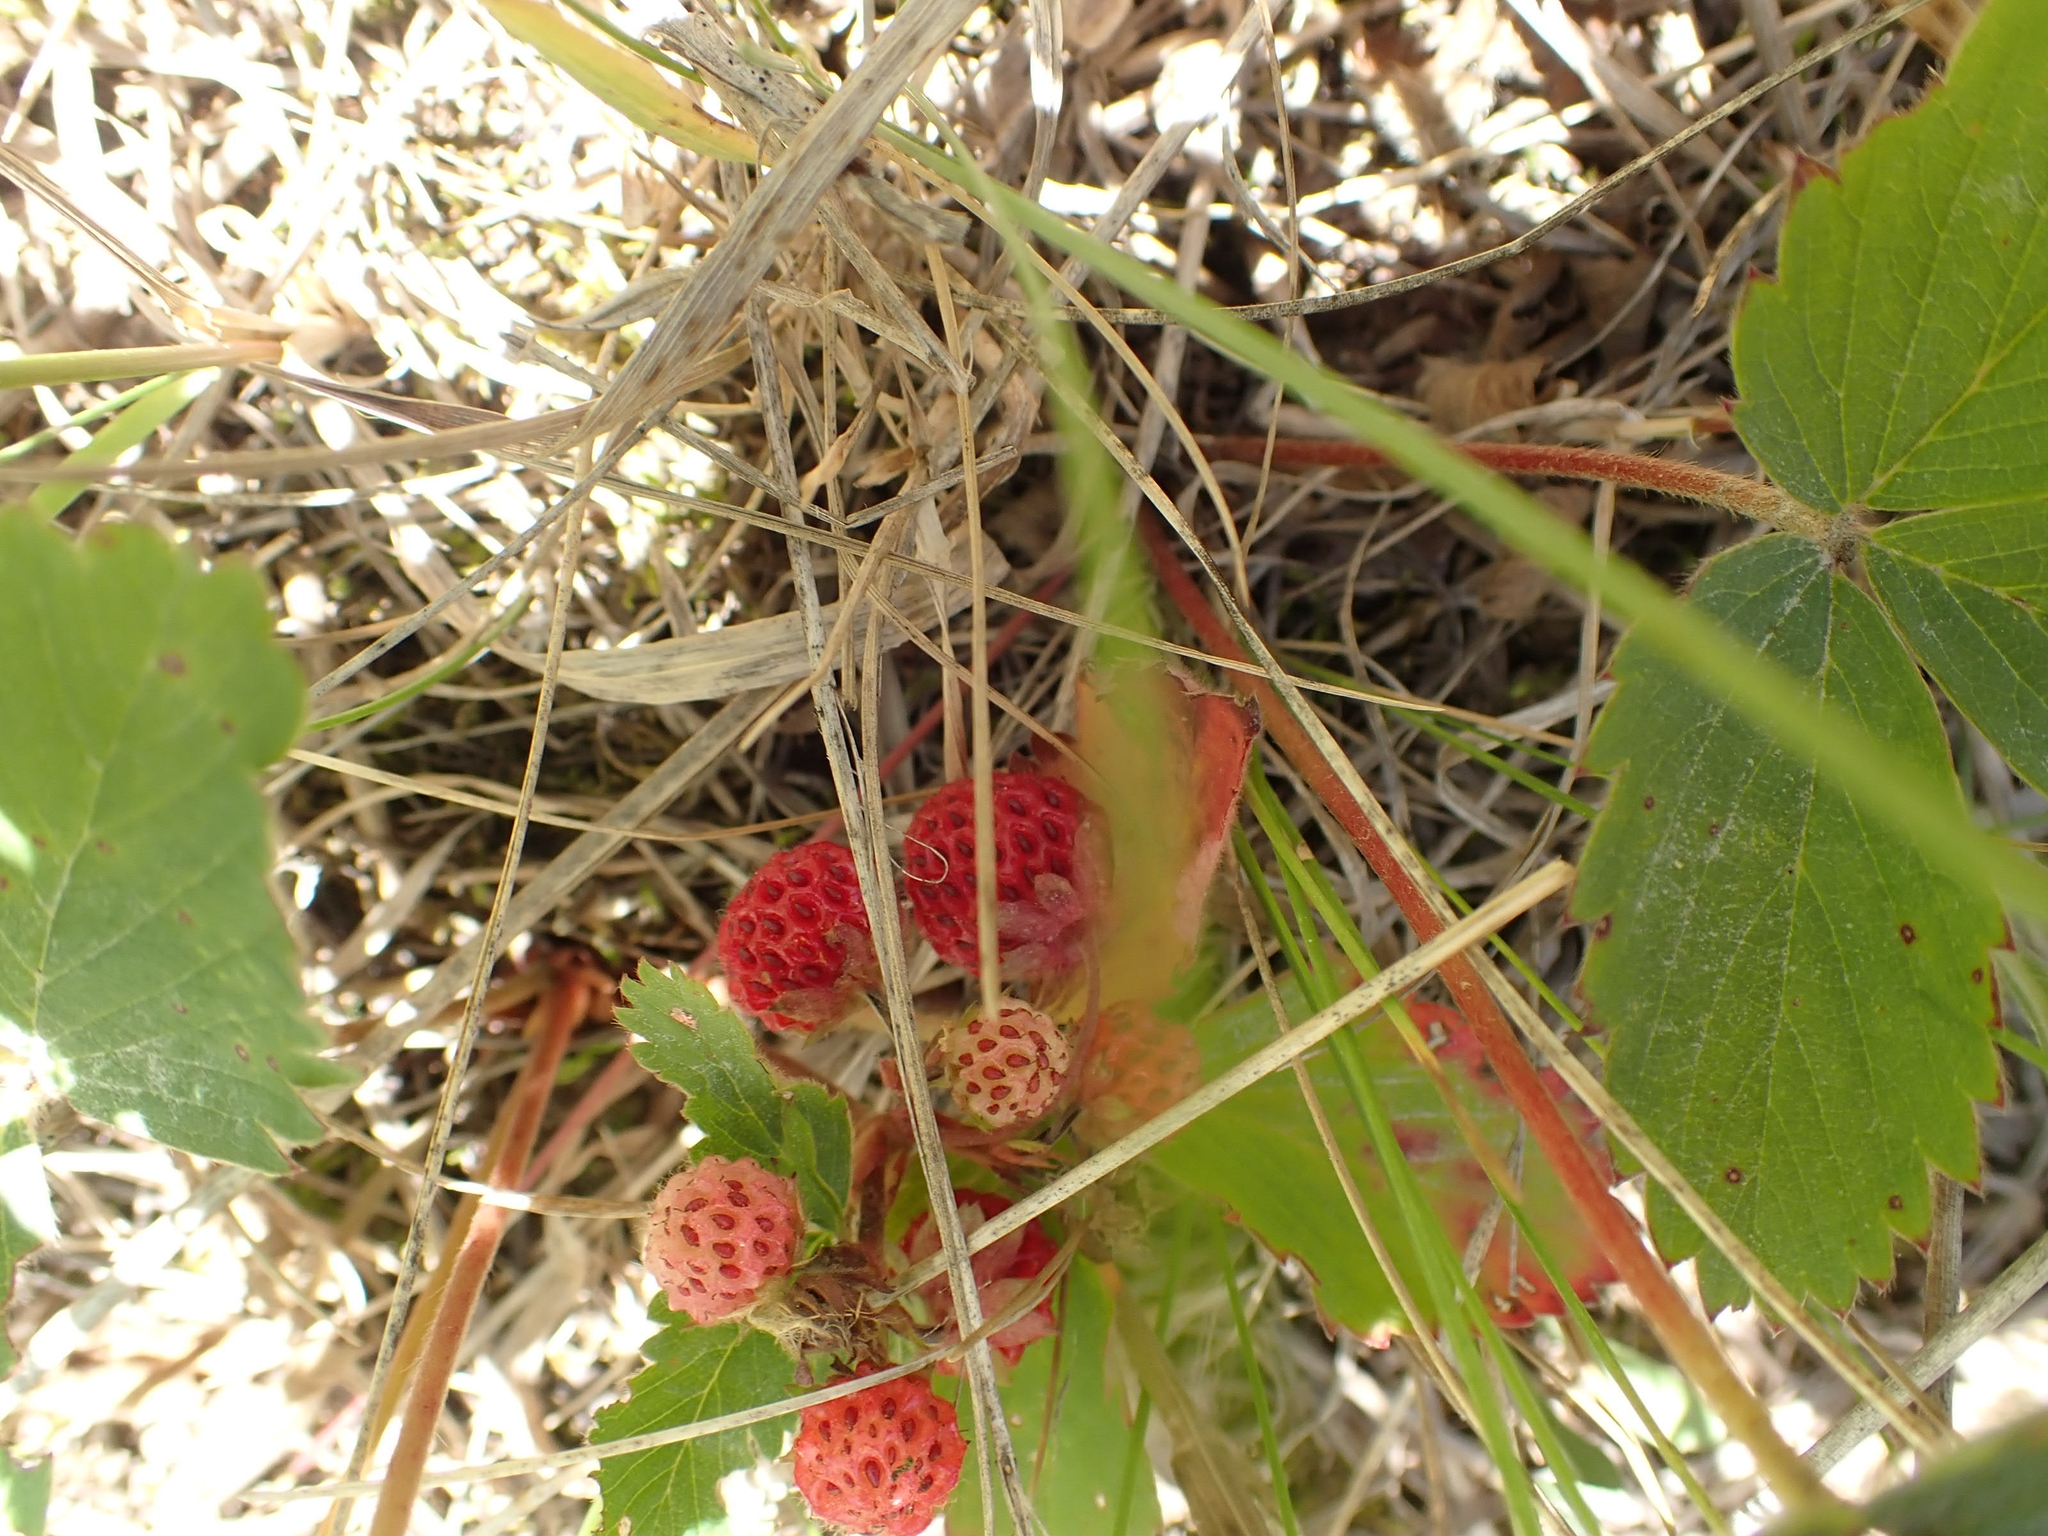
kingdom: Plantae
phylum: Tracheophyta
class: Magnoliopsida
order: Rosales
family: Rosaceae
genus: Fragaria
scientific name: Fragaria virginiana
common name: Thickleaved wild strawberry
